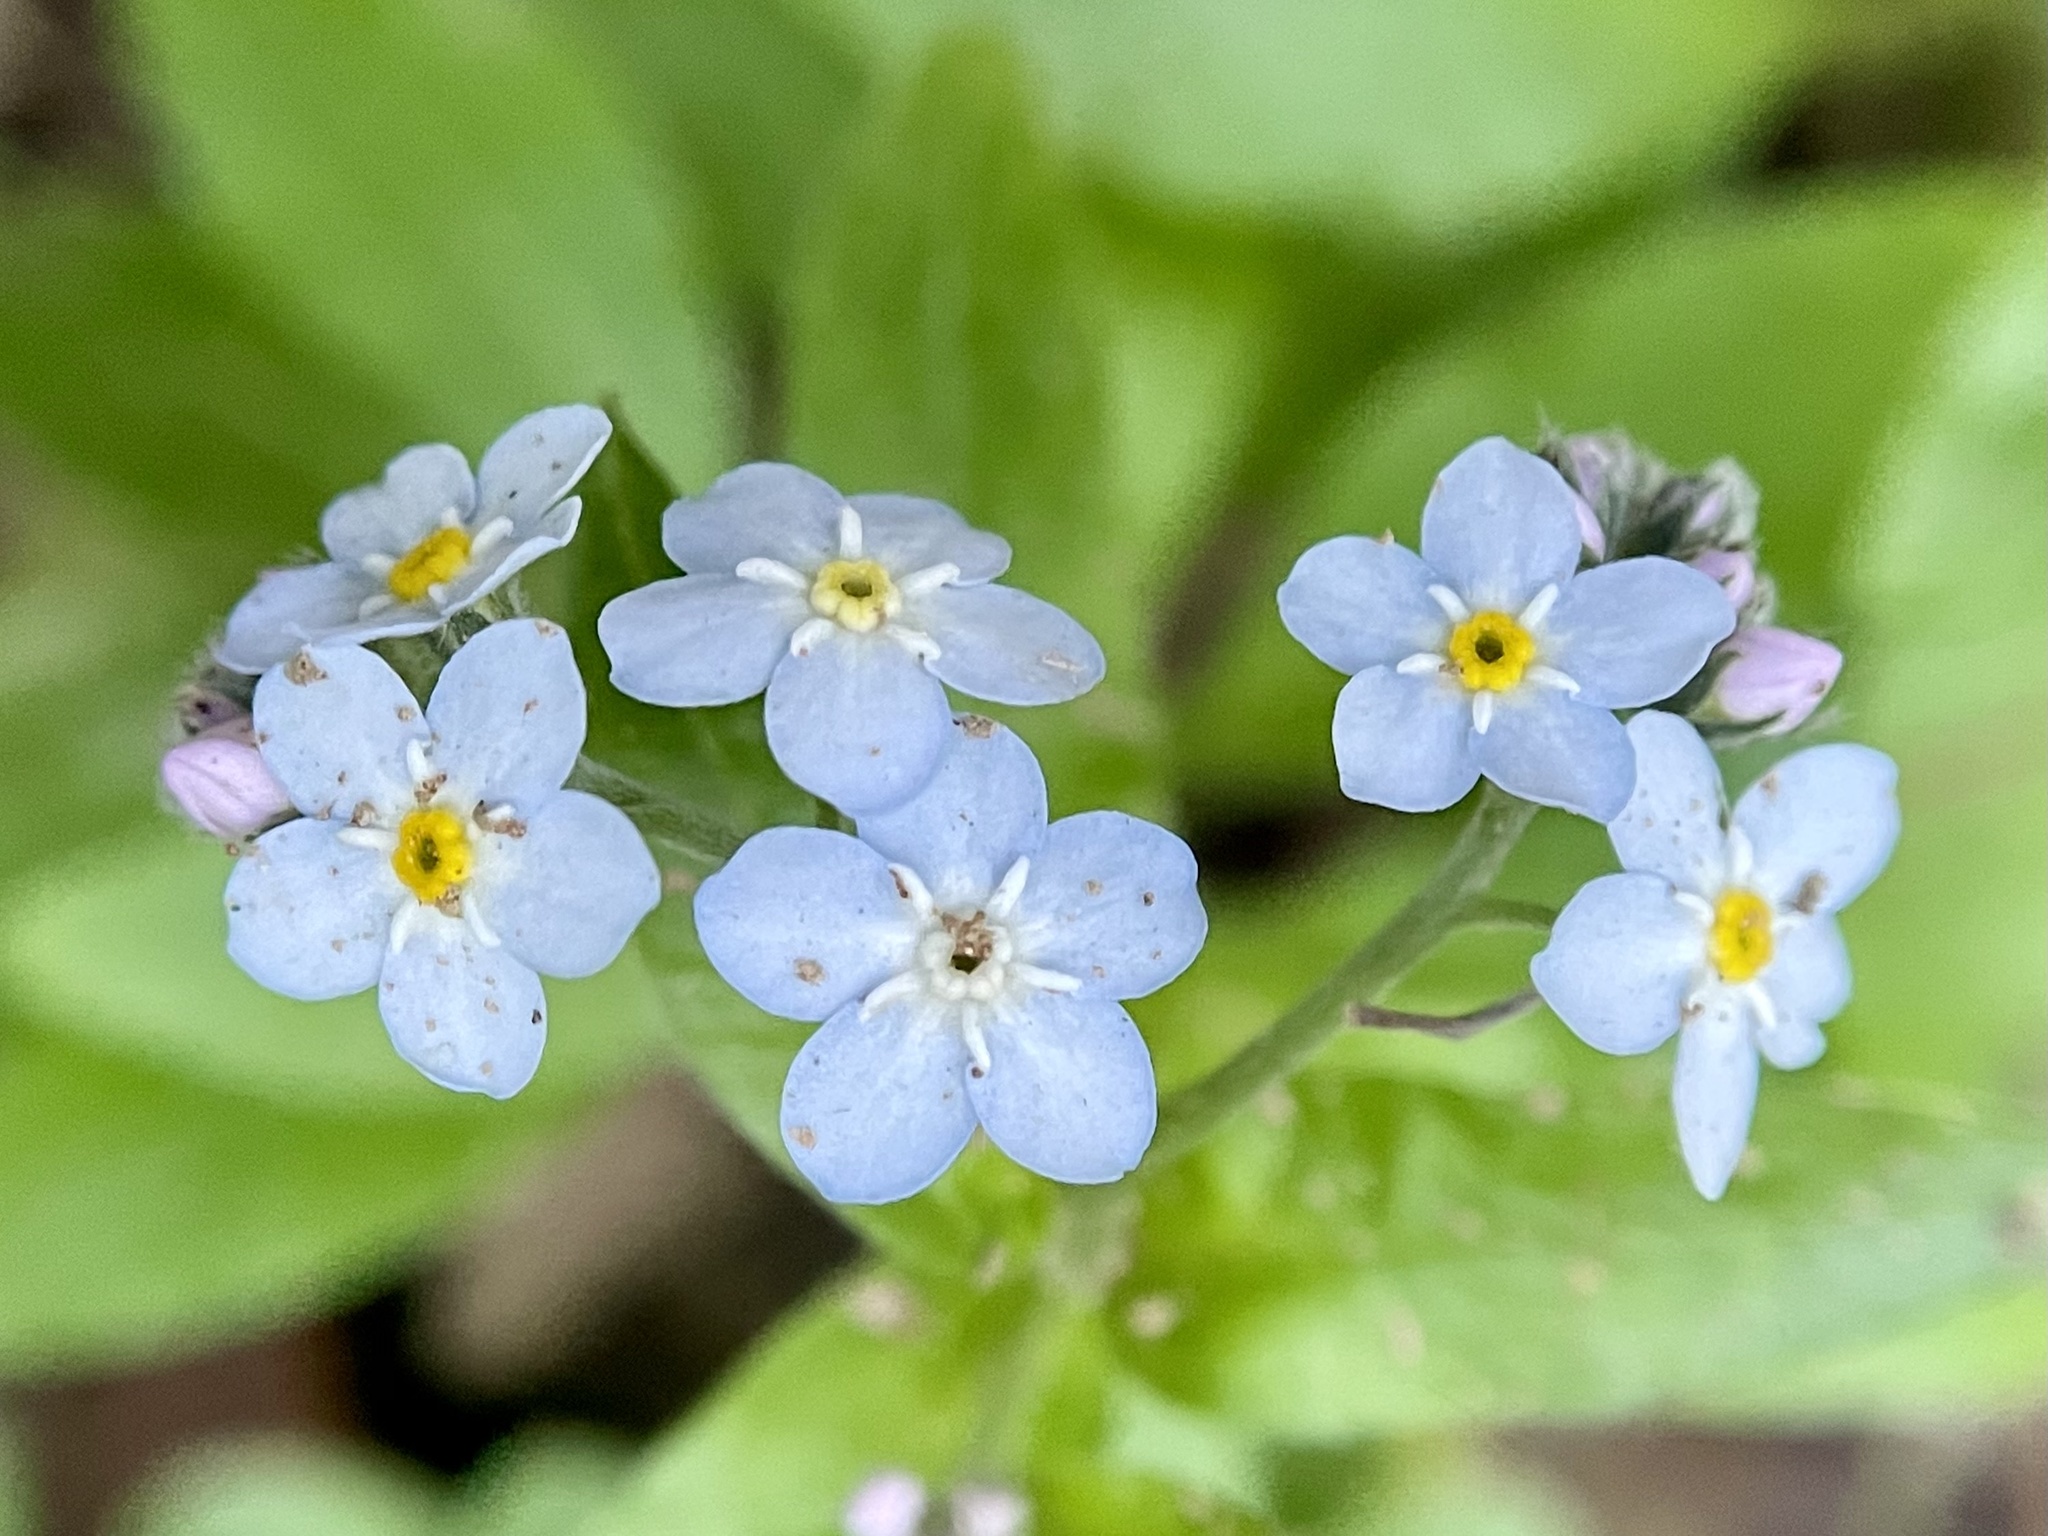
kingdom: Plantae
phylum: Tracheophyta
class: Magnoliopsida
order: Boraginales
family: Boraginaceae
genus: Myosotis
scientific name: Myosotis latifolia
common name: Broadleaf forget-me-not
